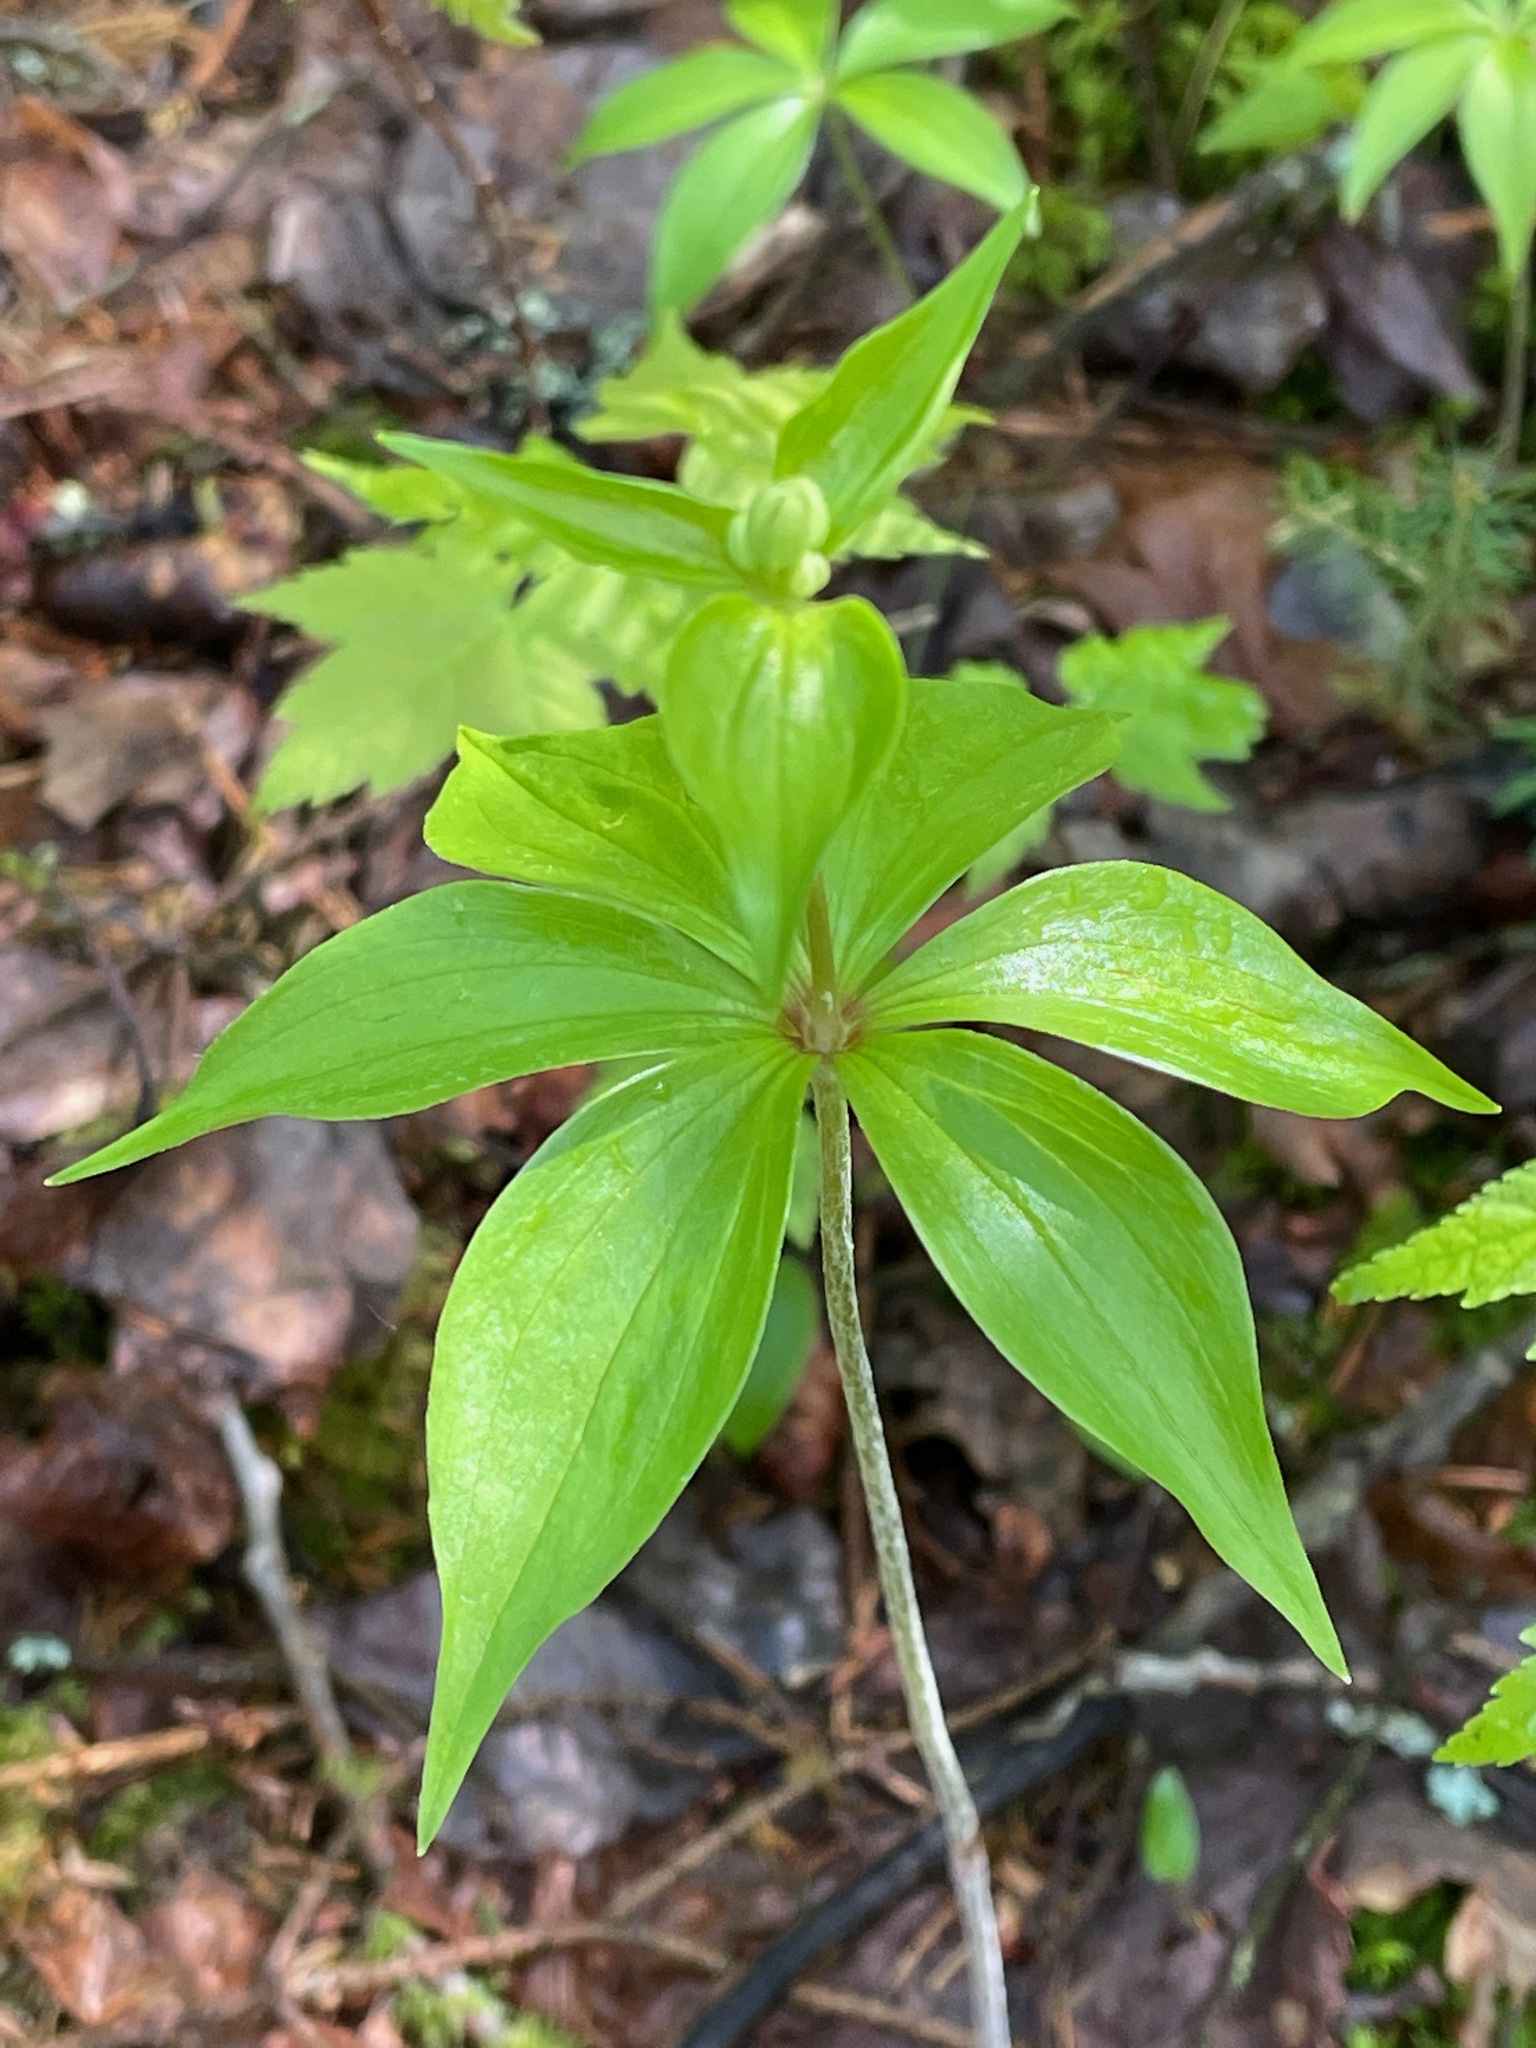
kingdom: Plantae
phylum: Tracheophyta
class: Liliopsida
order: Liliales
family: Liliaceae
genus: Medeola
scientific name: Medeola virginiana
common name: Indian cucumber-root
